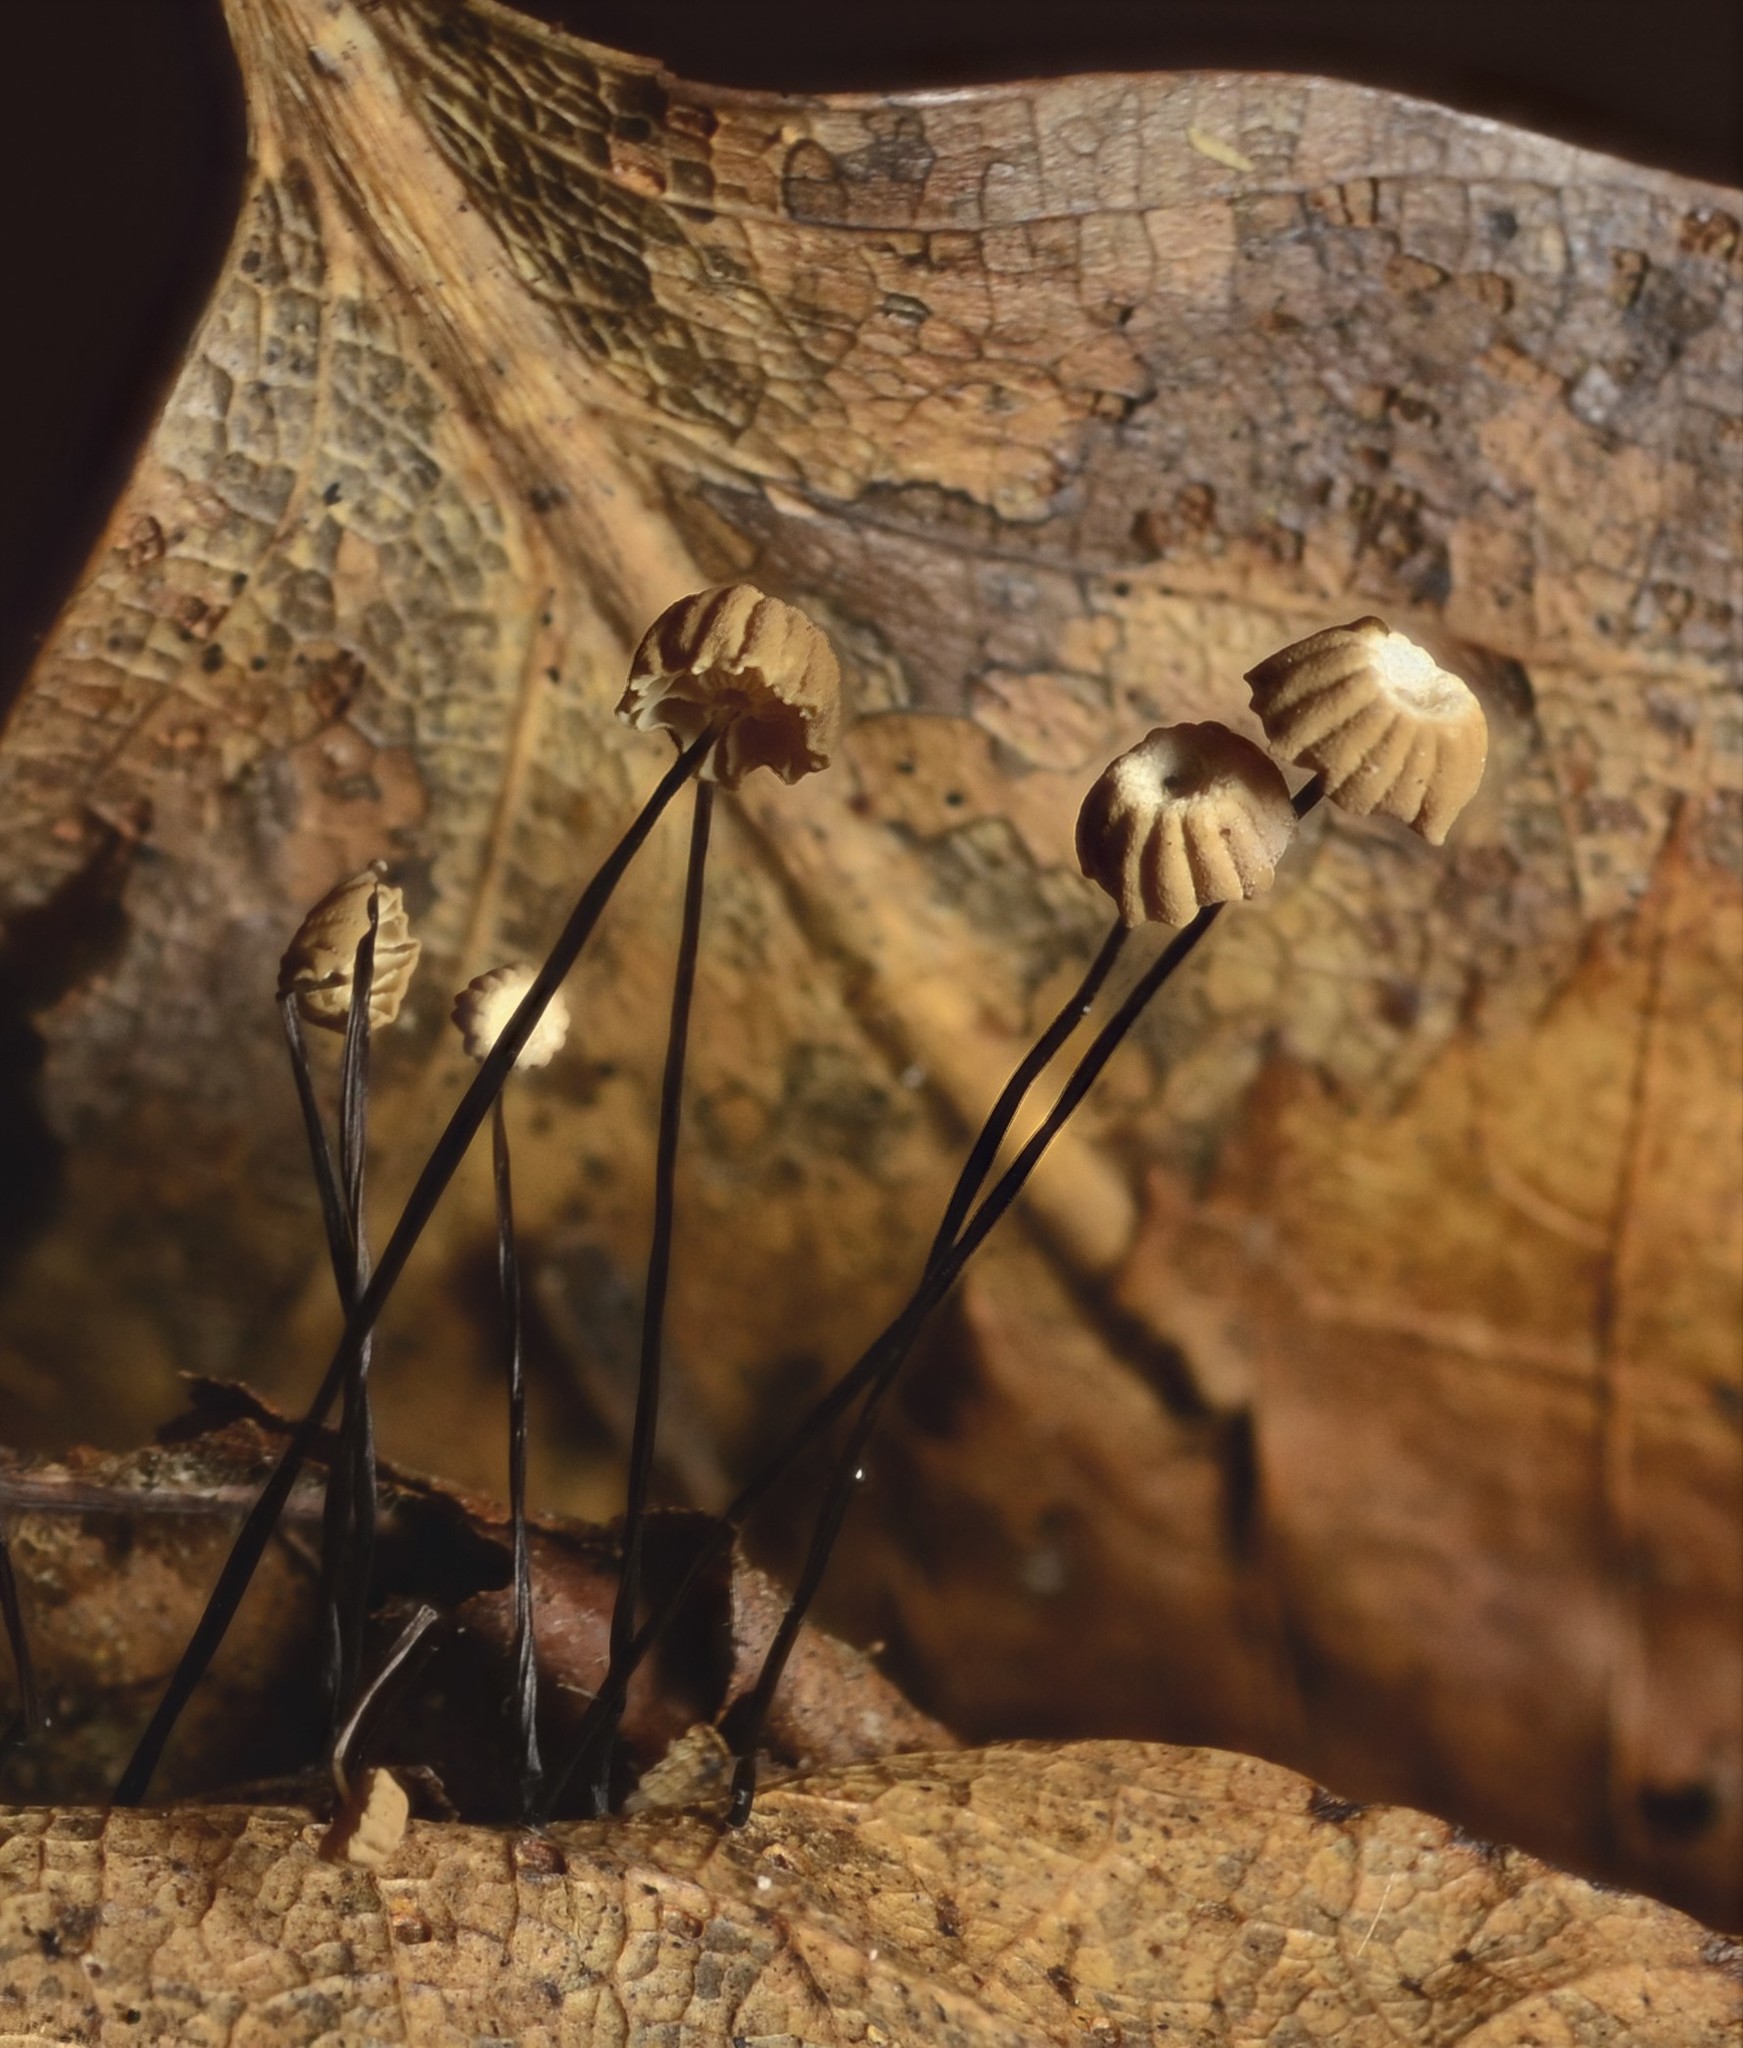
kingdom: Fungi
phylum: Basidiomycota
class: Agaricomycetes
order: Agaricales
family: Marasmiaceae
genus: Marasmius
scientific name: Marasmius capillaris
